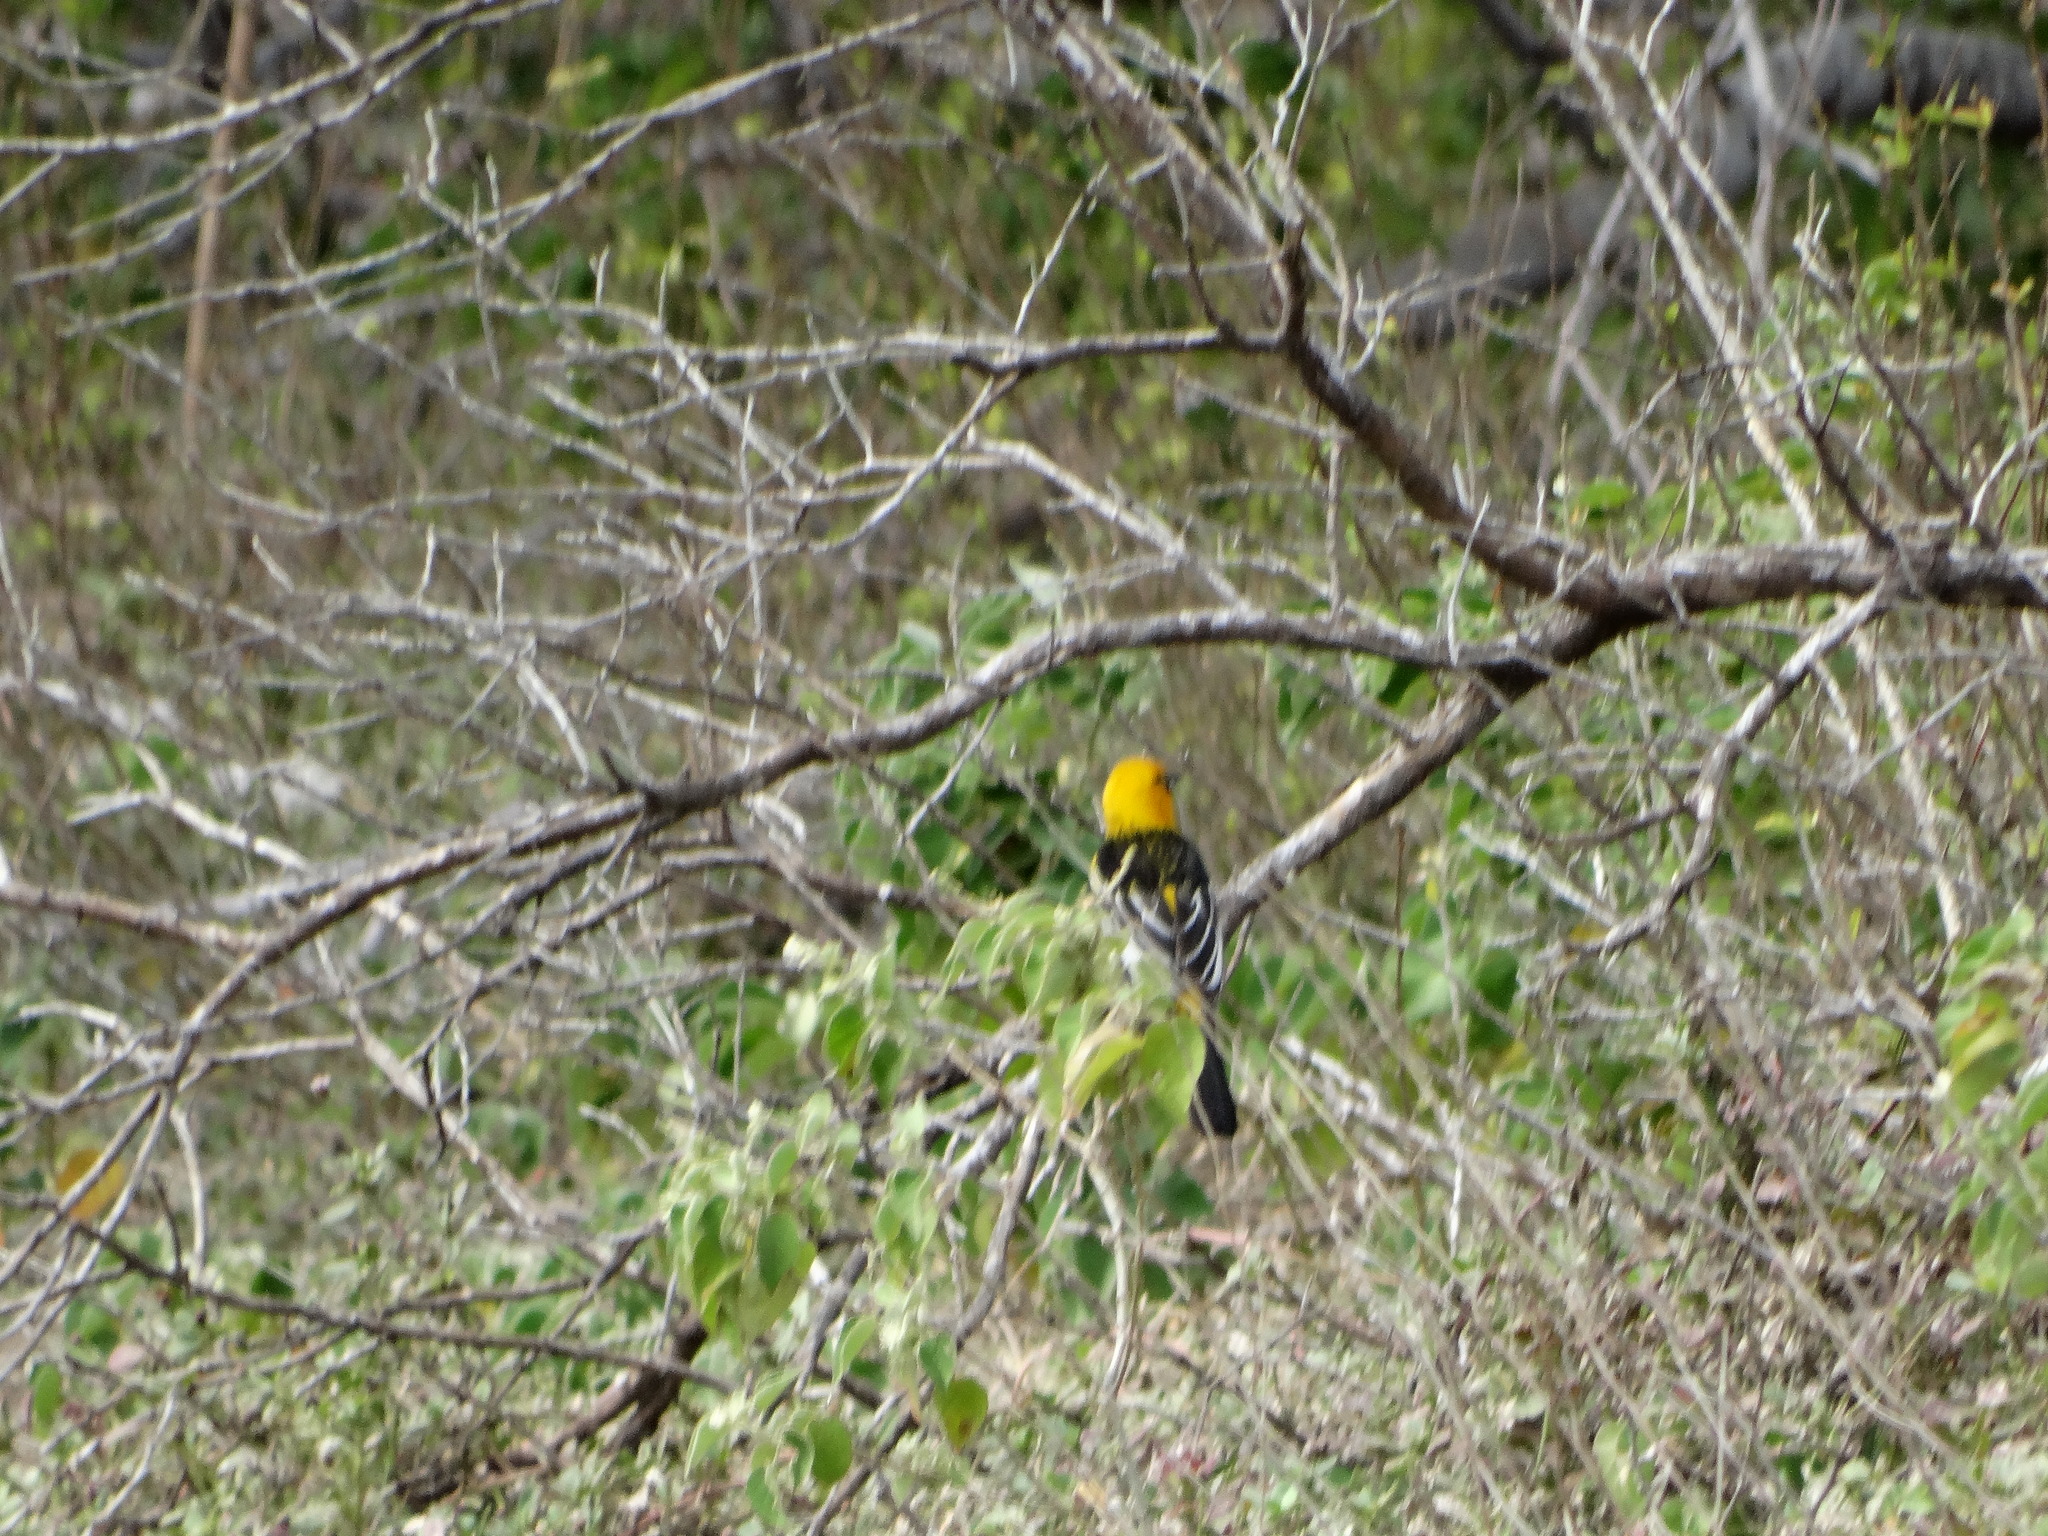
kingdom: Animalia
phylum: Chordata
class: Aves
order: Passeriformes
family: Icteridae
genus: Icterus
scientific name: Icterus pustulatus
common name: Streak-backed oriole
